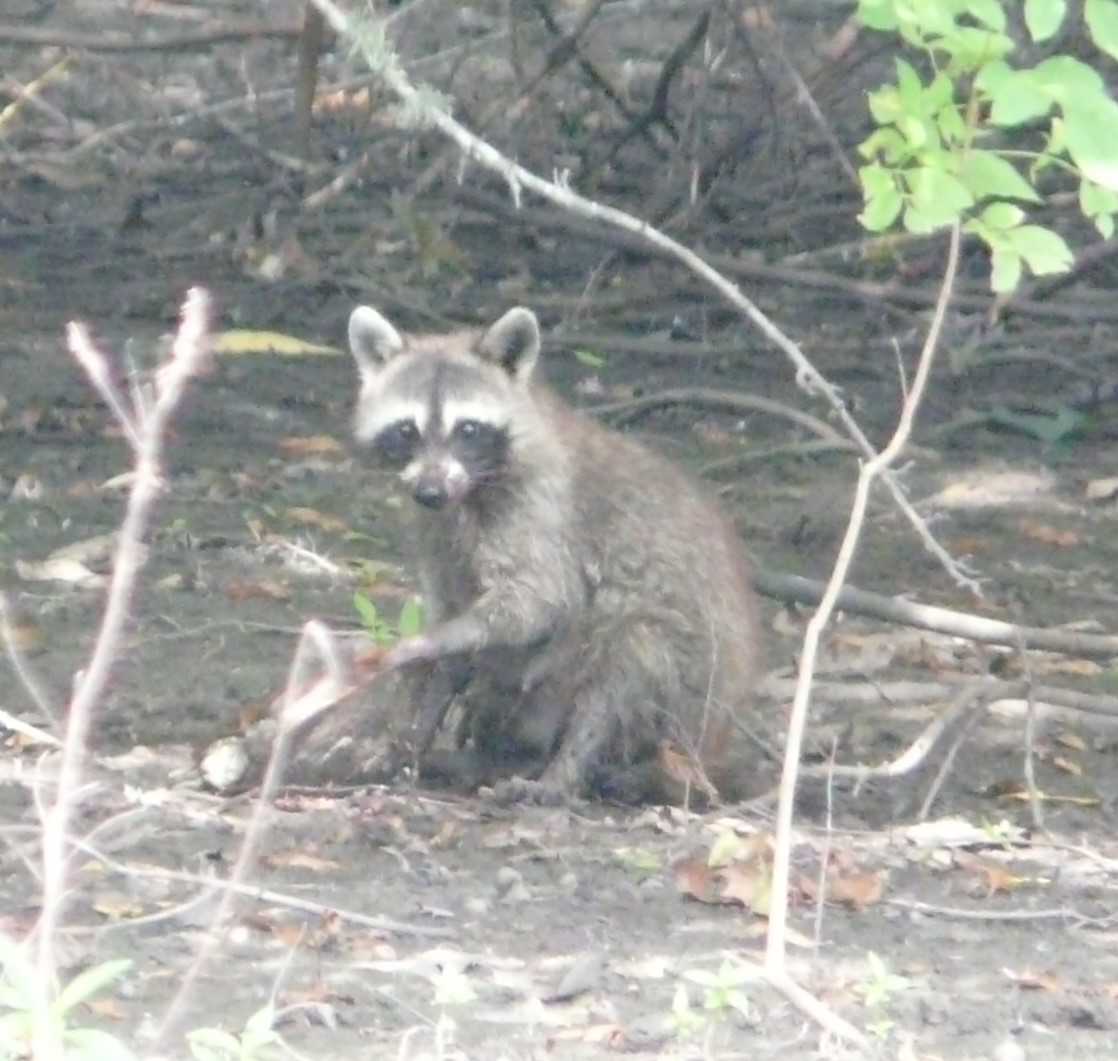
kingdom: Animalia
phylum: Chordata
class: Mammalia
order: Carnivora
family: Procyonidae
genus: Procyon
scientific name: Procyon lotor
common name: Raccoon
